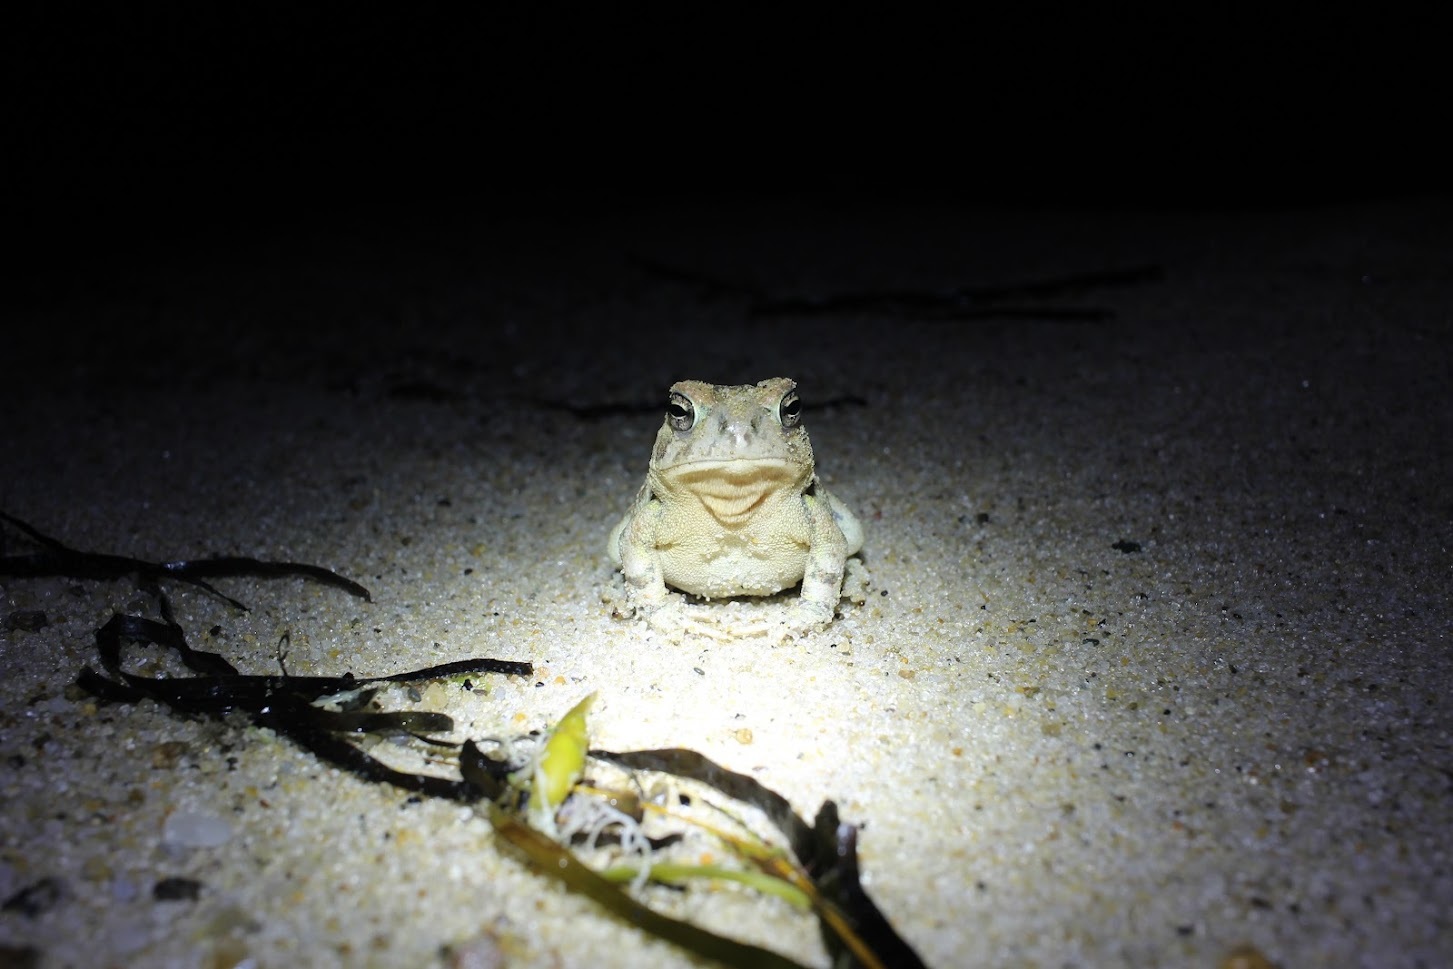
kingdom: Animalia
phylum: Chordata
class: Amphibia
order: Anura
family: Bufonidae
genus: Anaxyrus
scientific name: Anaxyrus fowleri
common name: Fowler's toad
